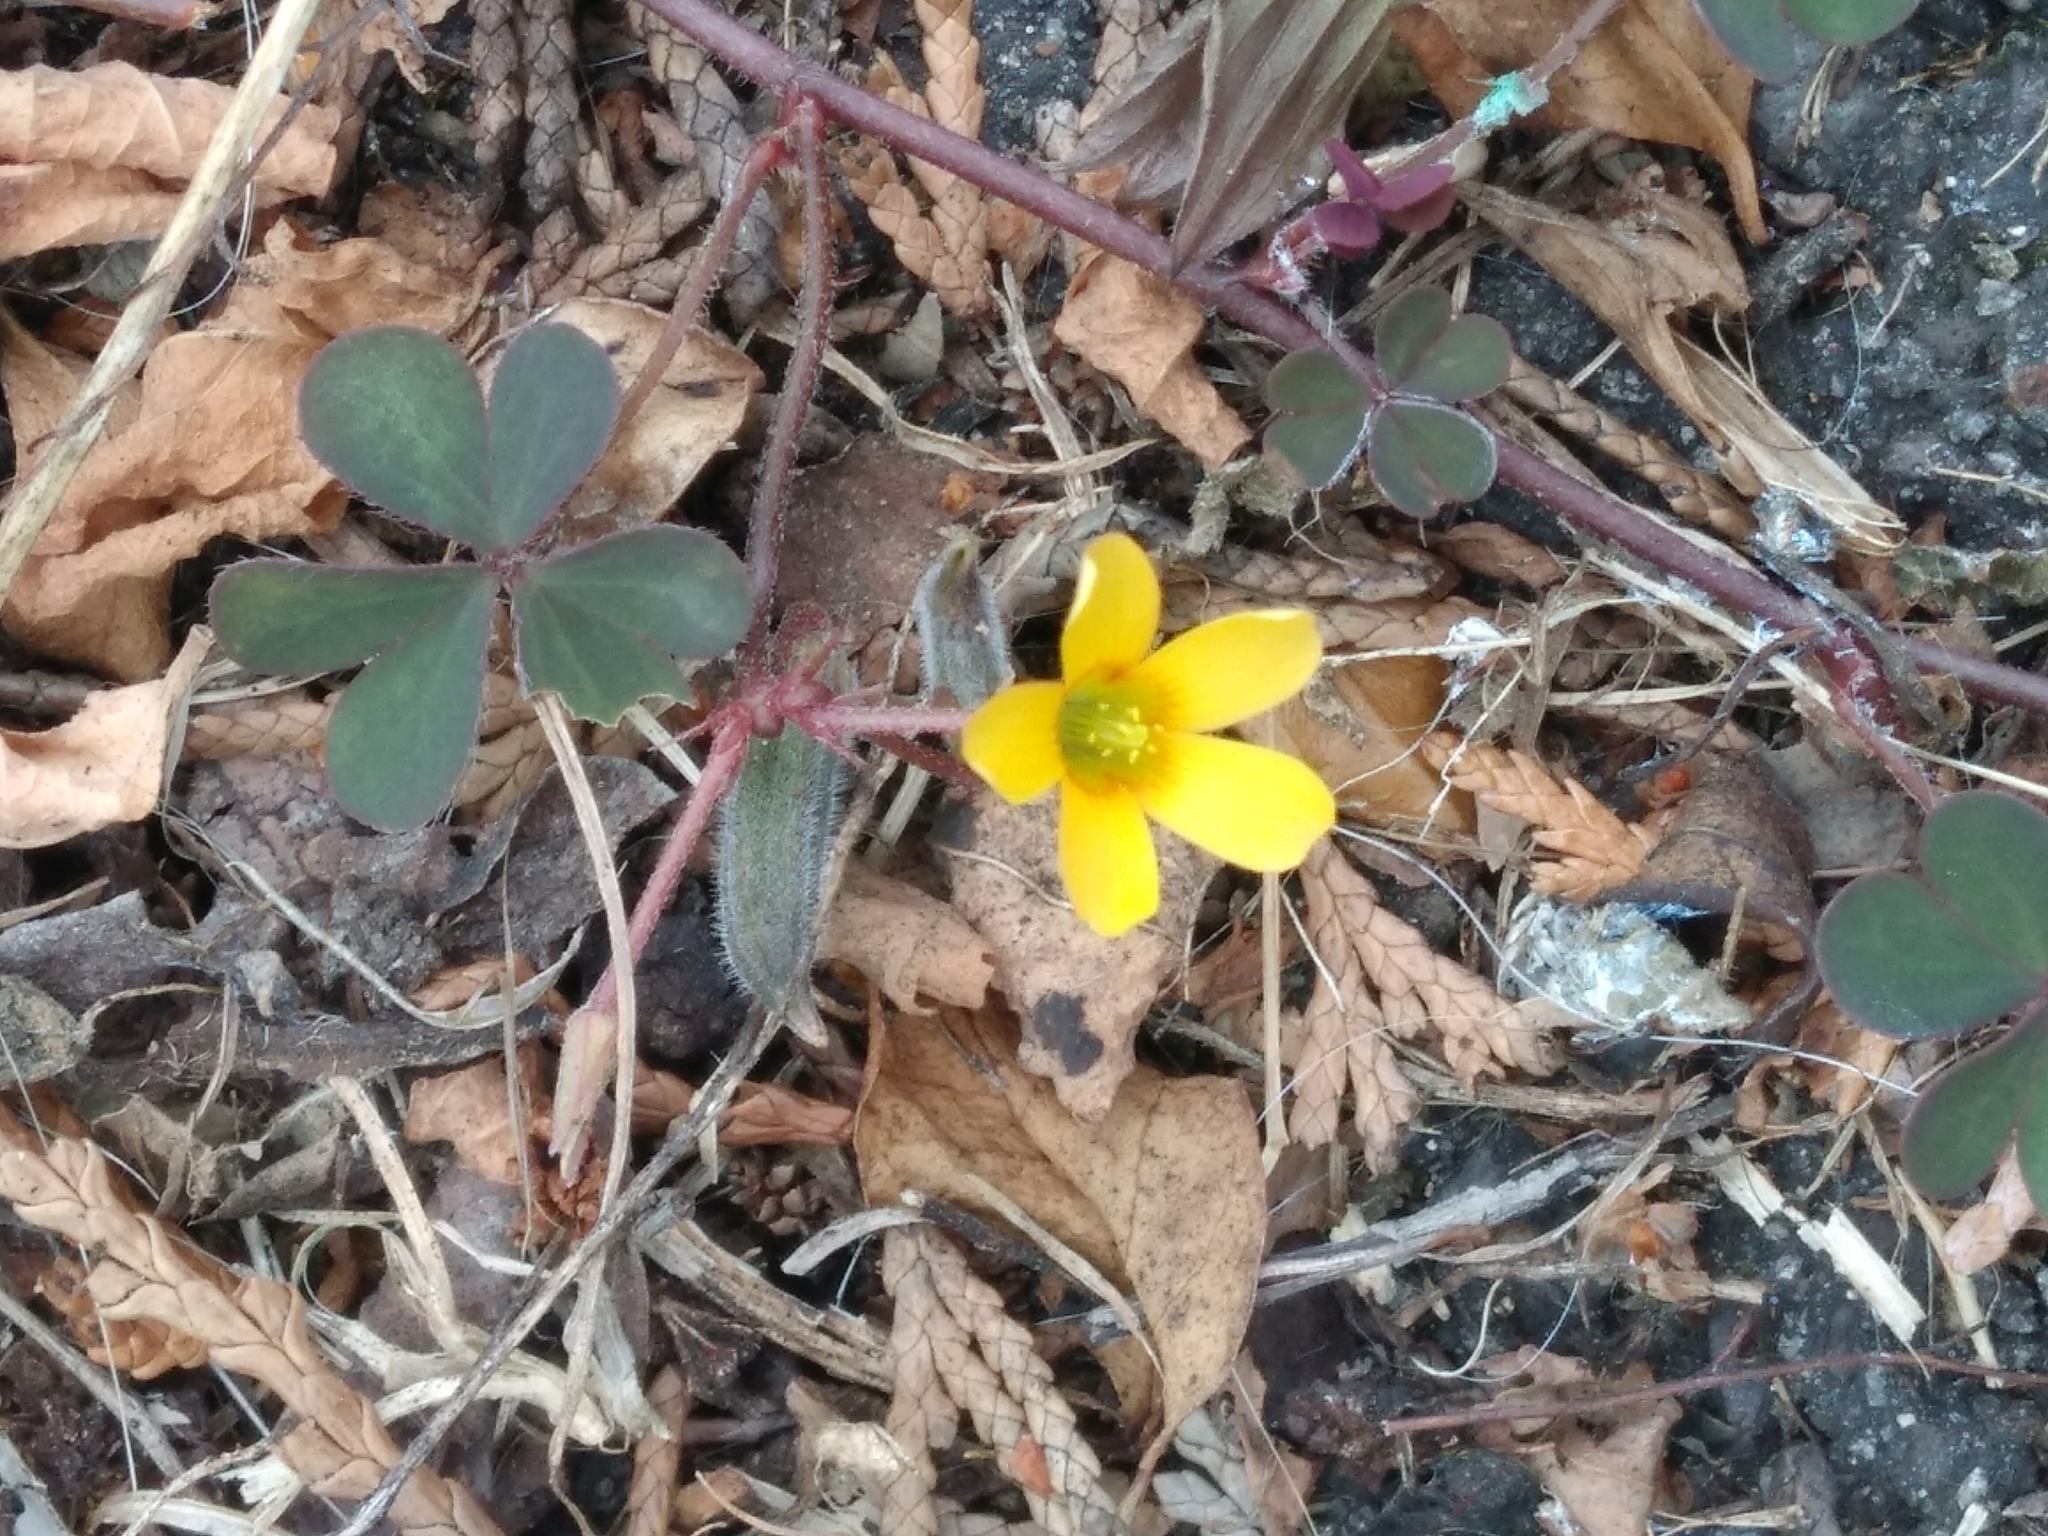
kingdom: Plantae
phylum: Tracheophyta
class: Magnoliopsida
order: Oxalidales
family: Oxalidaceae
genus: Oxalis
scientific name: Oxalis corniculata
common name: Procumbent yellow-sorrel
